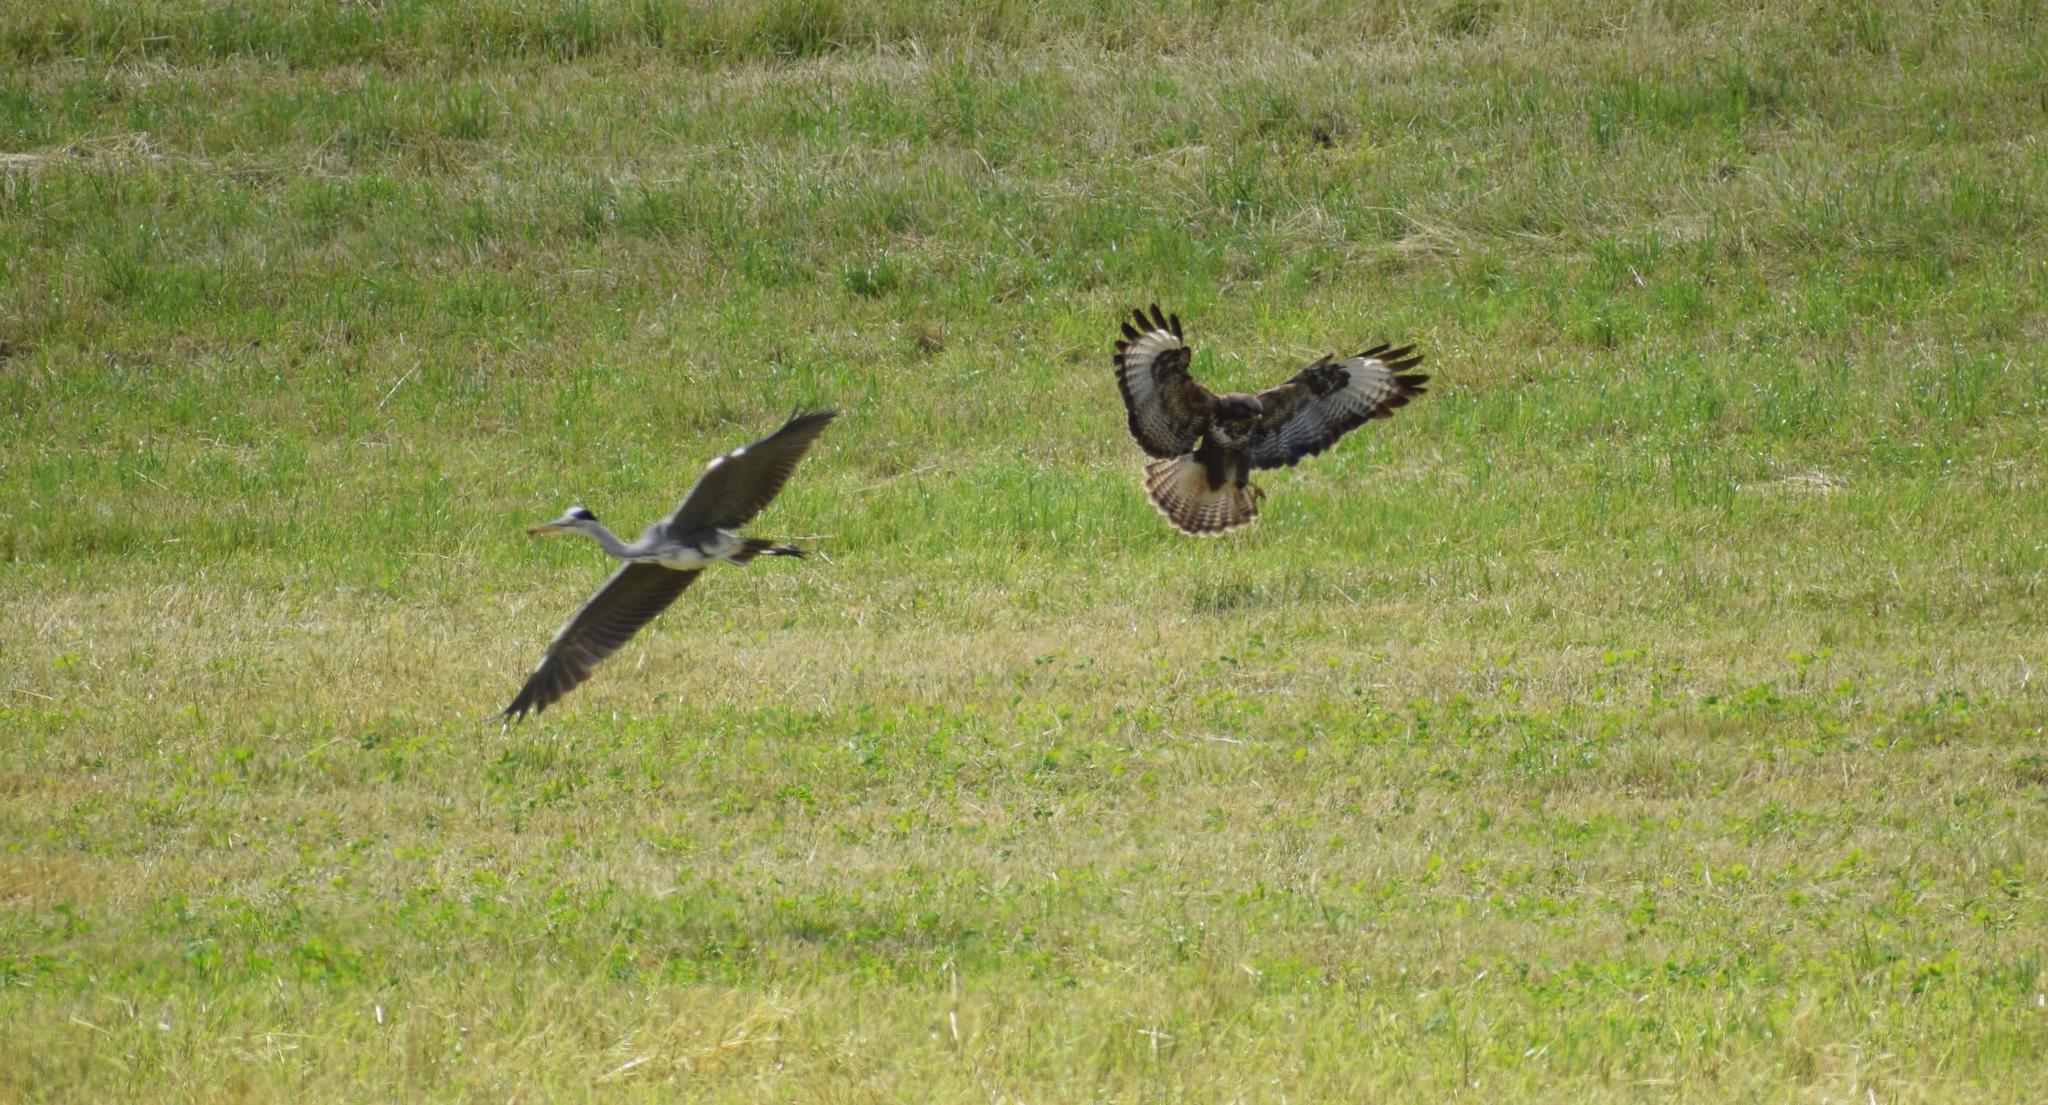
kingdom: Animalia
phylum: Chordata
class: Aves
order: Pelecaniformes
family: Ardeidae
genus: Ardea
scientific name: Ardea cinerea
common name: Grey heron
